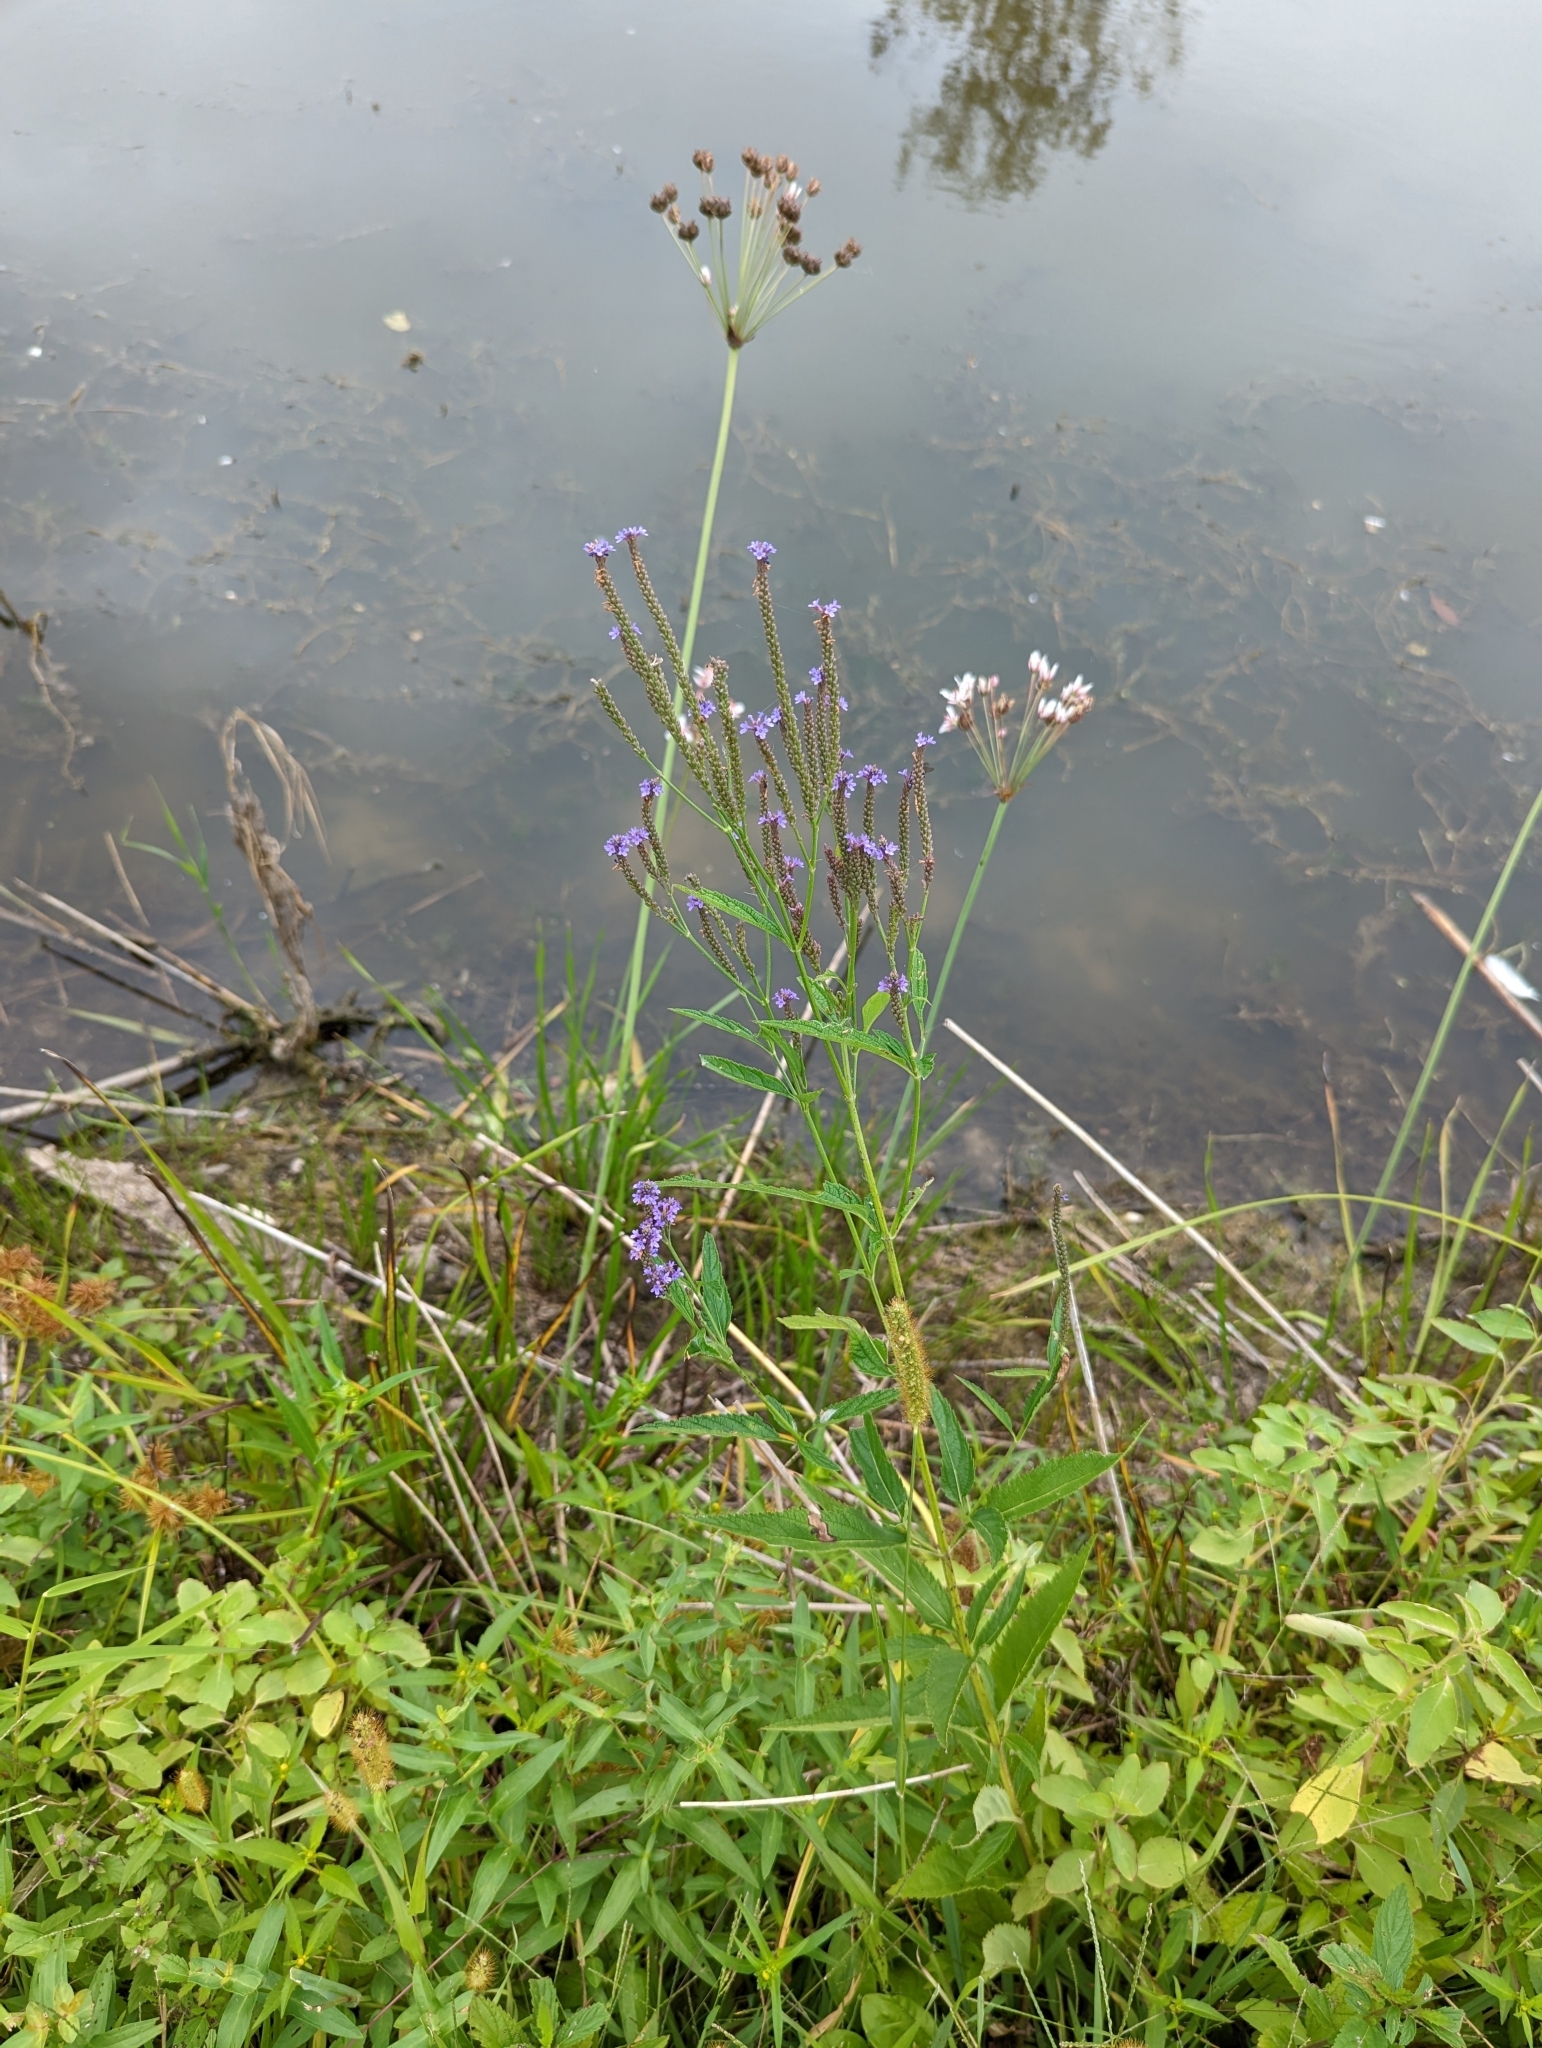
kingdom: Plantae
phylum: Tracheophyta
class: Magnoliopsida
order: Lamiales
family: Verbenaceae
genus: Verbena
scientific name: Verbena hastata
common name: American blue vervain
